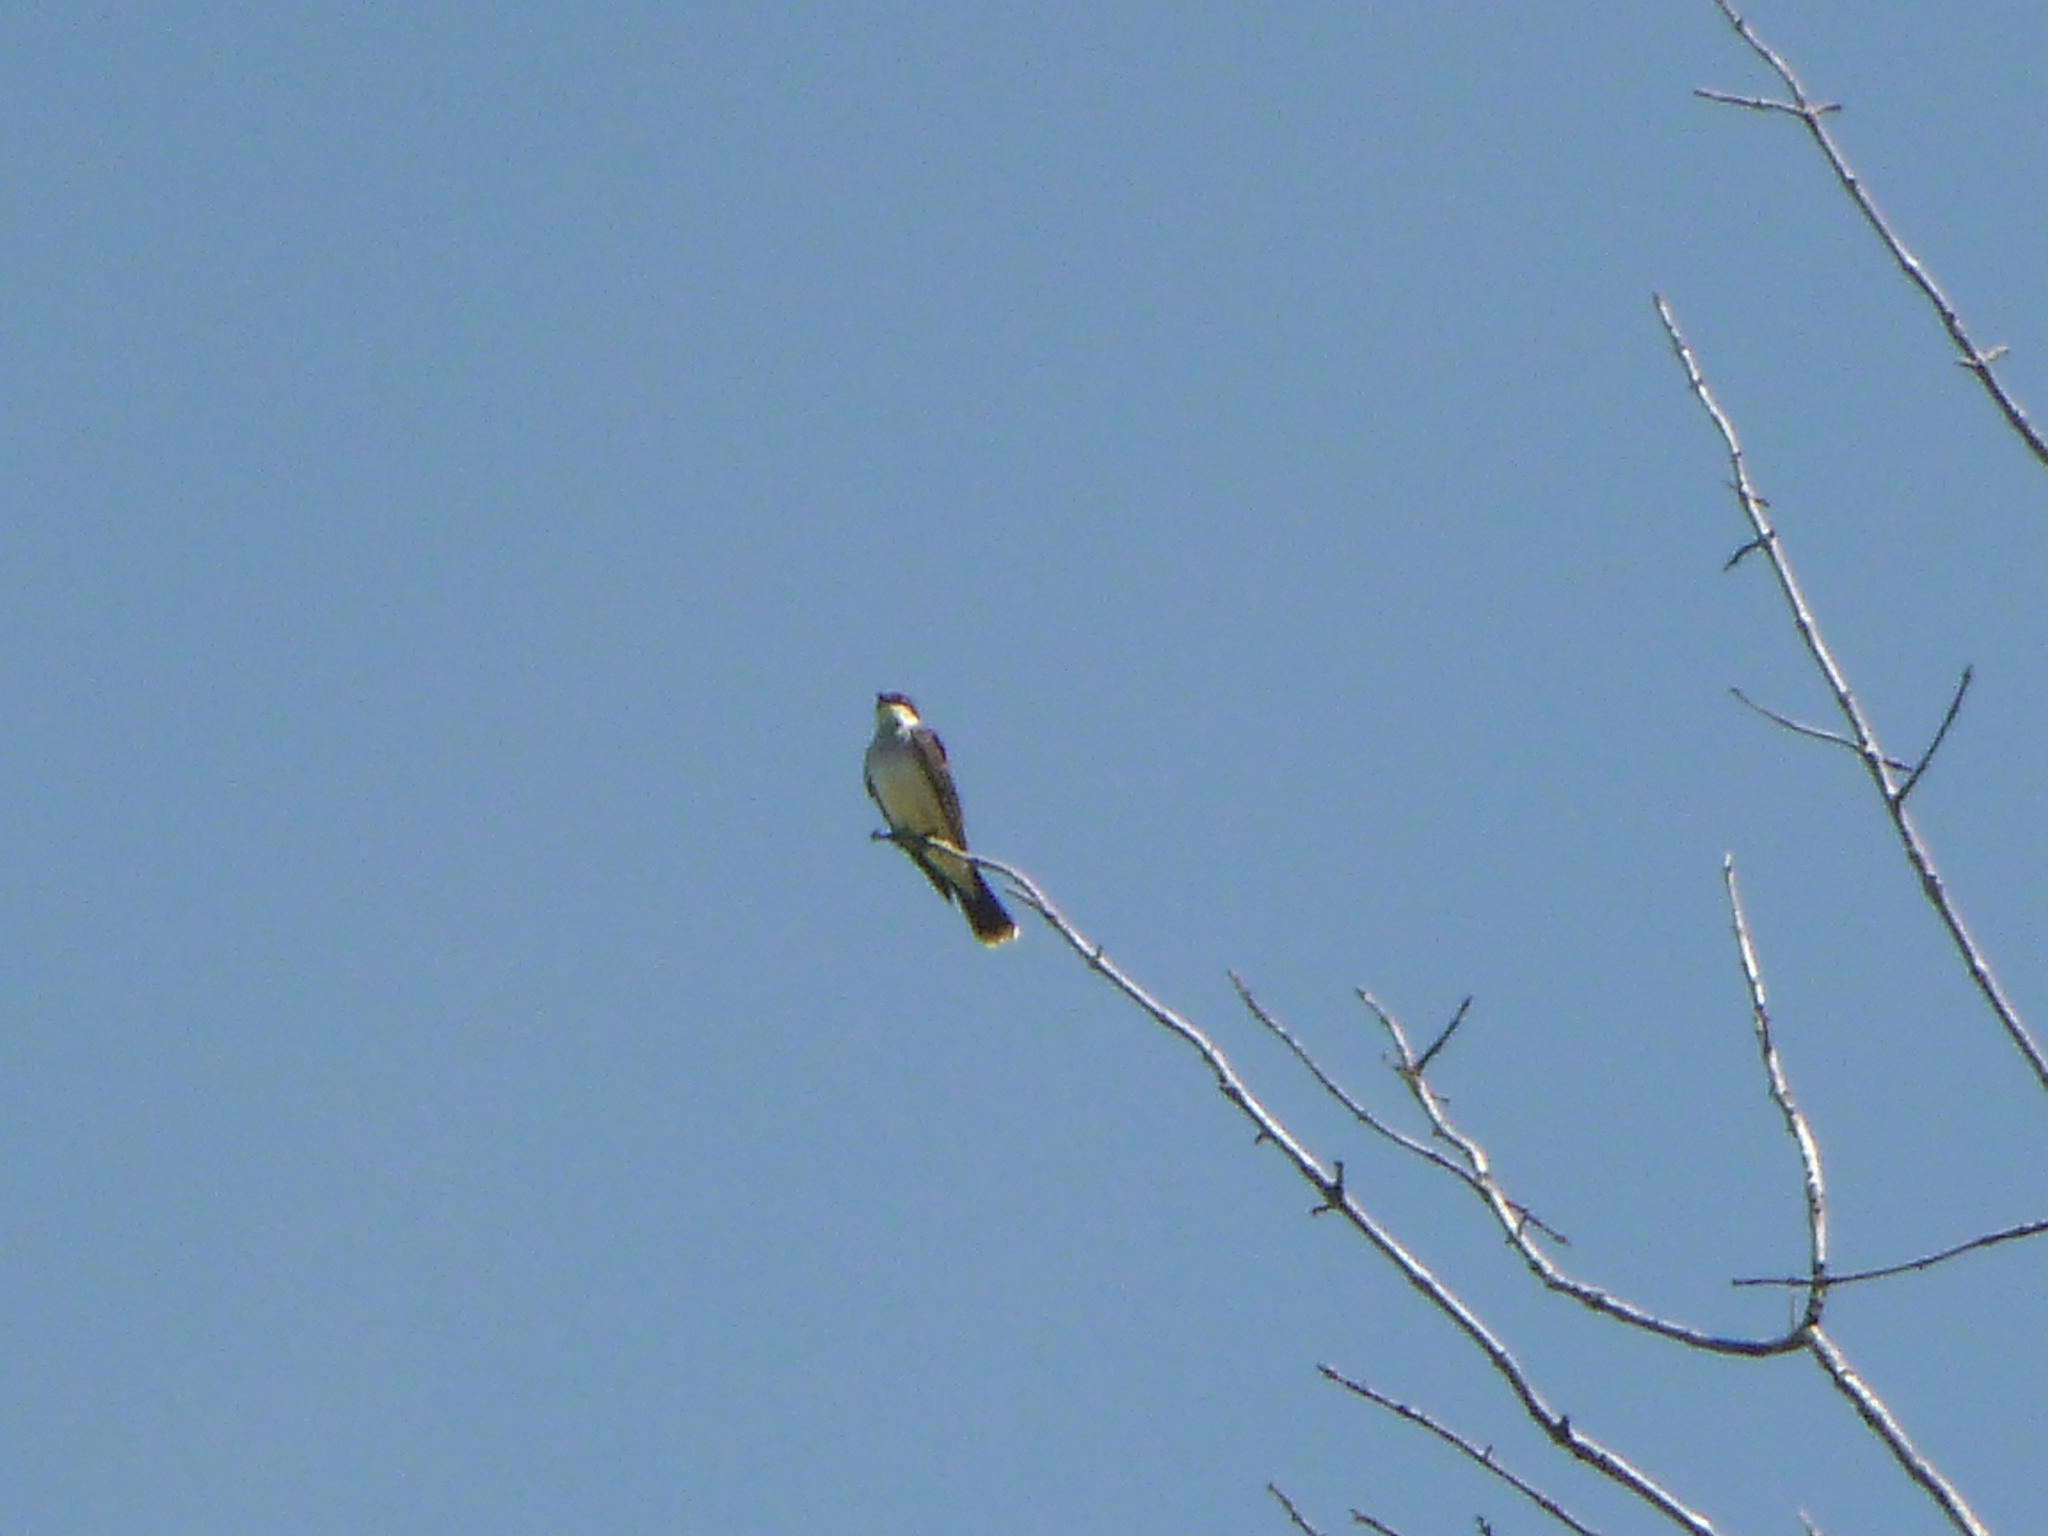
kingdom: Animalia
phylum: Chordata
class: Aves
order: Passeriformes
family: Tyrannidae
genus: Tyrannus
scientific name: Tyrannus tyrannus
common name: Eastern kingbird
